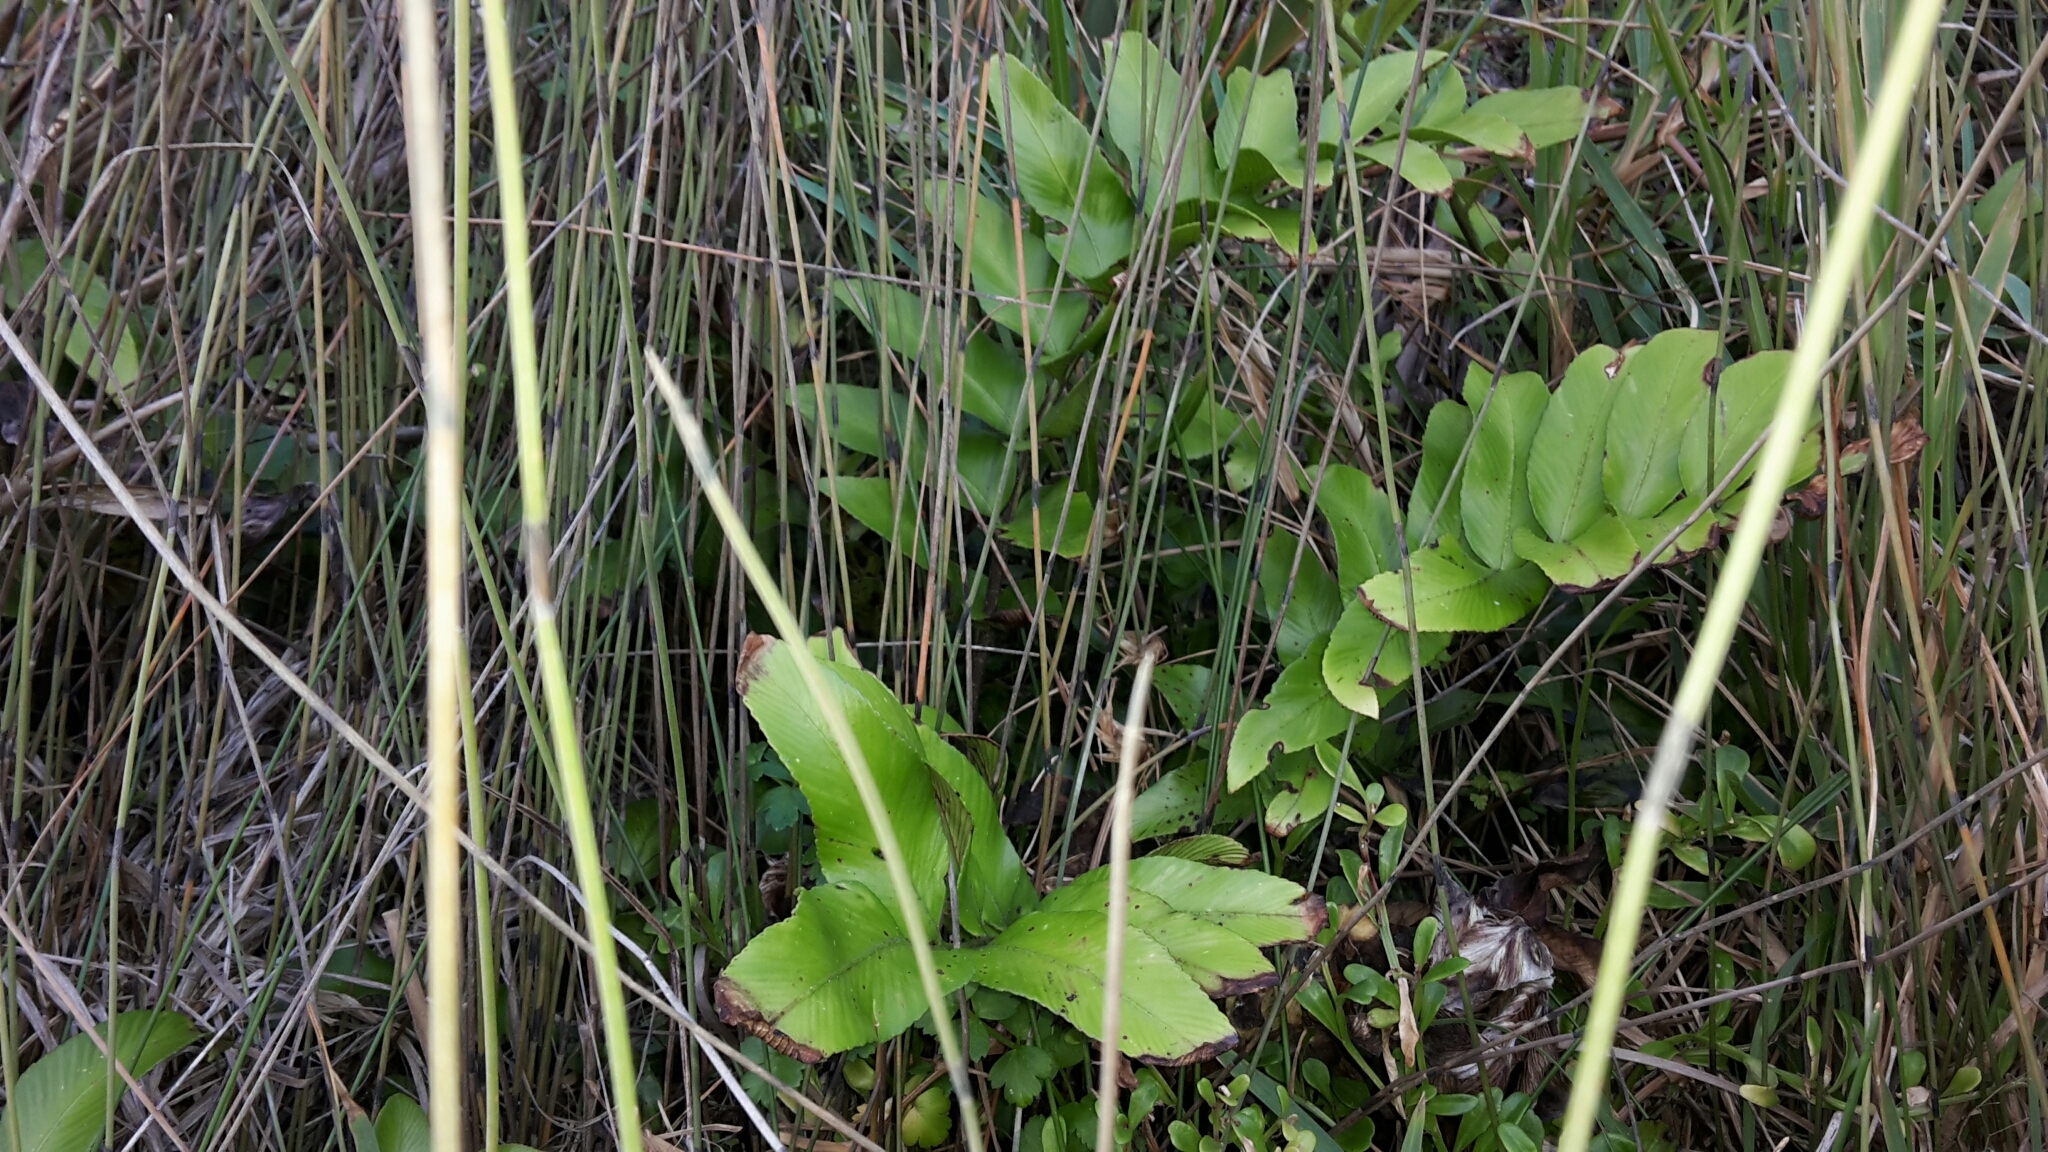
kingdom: Plantae
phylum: Tracheophyta
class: Polypodiopsida
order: Polypodiales
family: Aspleniaceae
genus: Asplenium
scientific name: Asplenium oblongifolium
